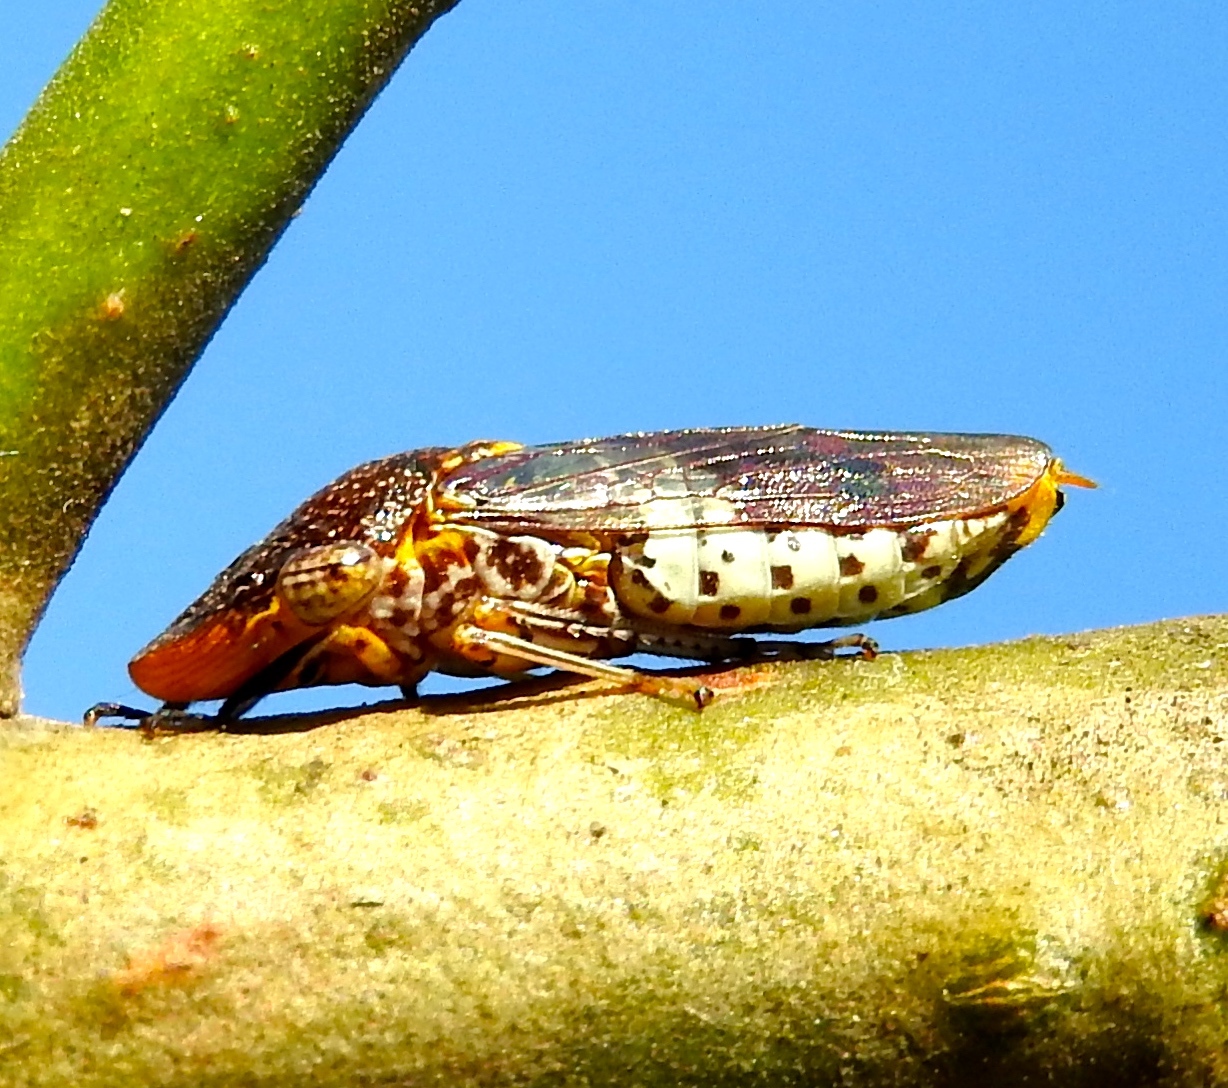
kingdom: Animalia
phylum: Arthropoda
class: Insecta
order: Hemiptera
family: Cicadellidae
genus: Homalodisca
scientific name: Homalodisca ichthyocephala
